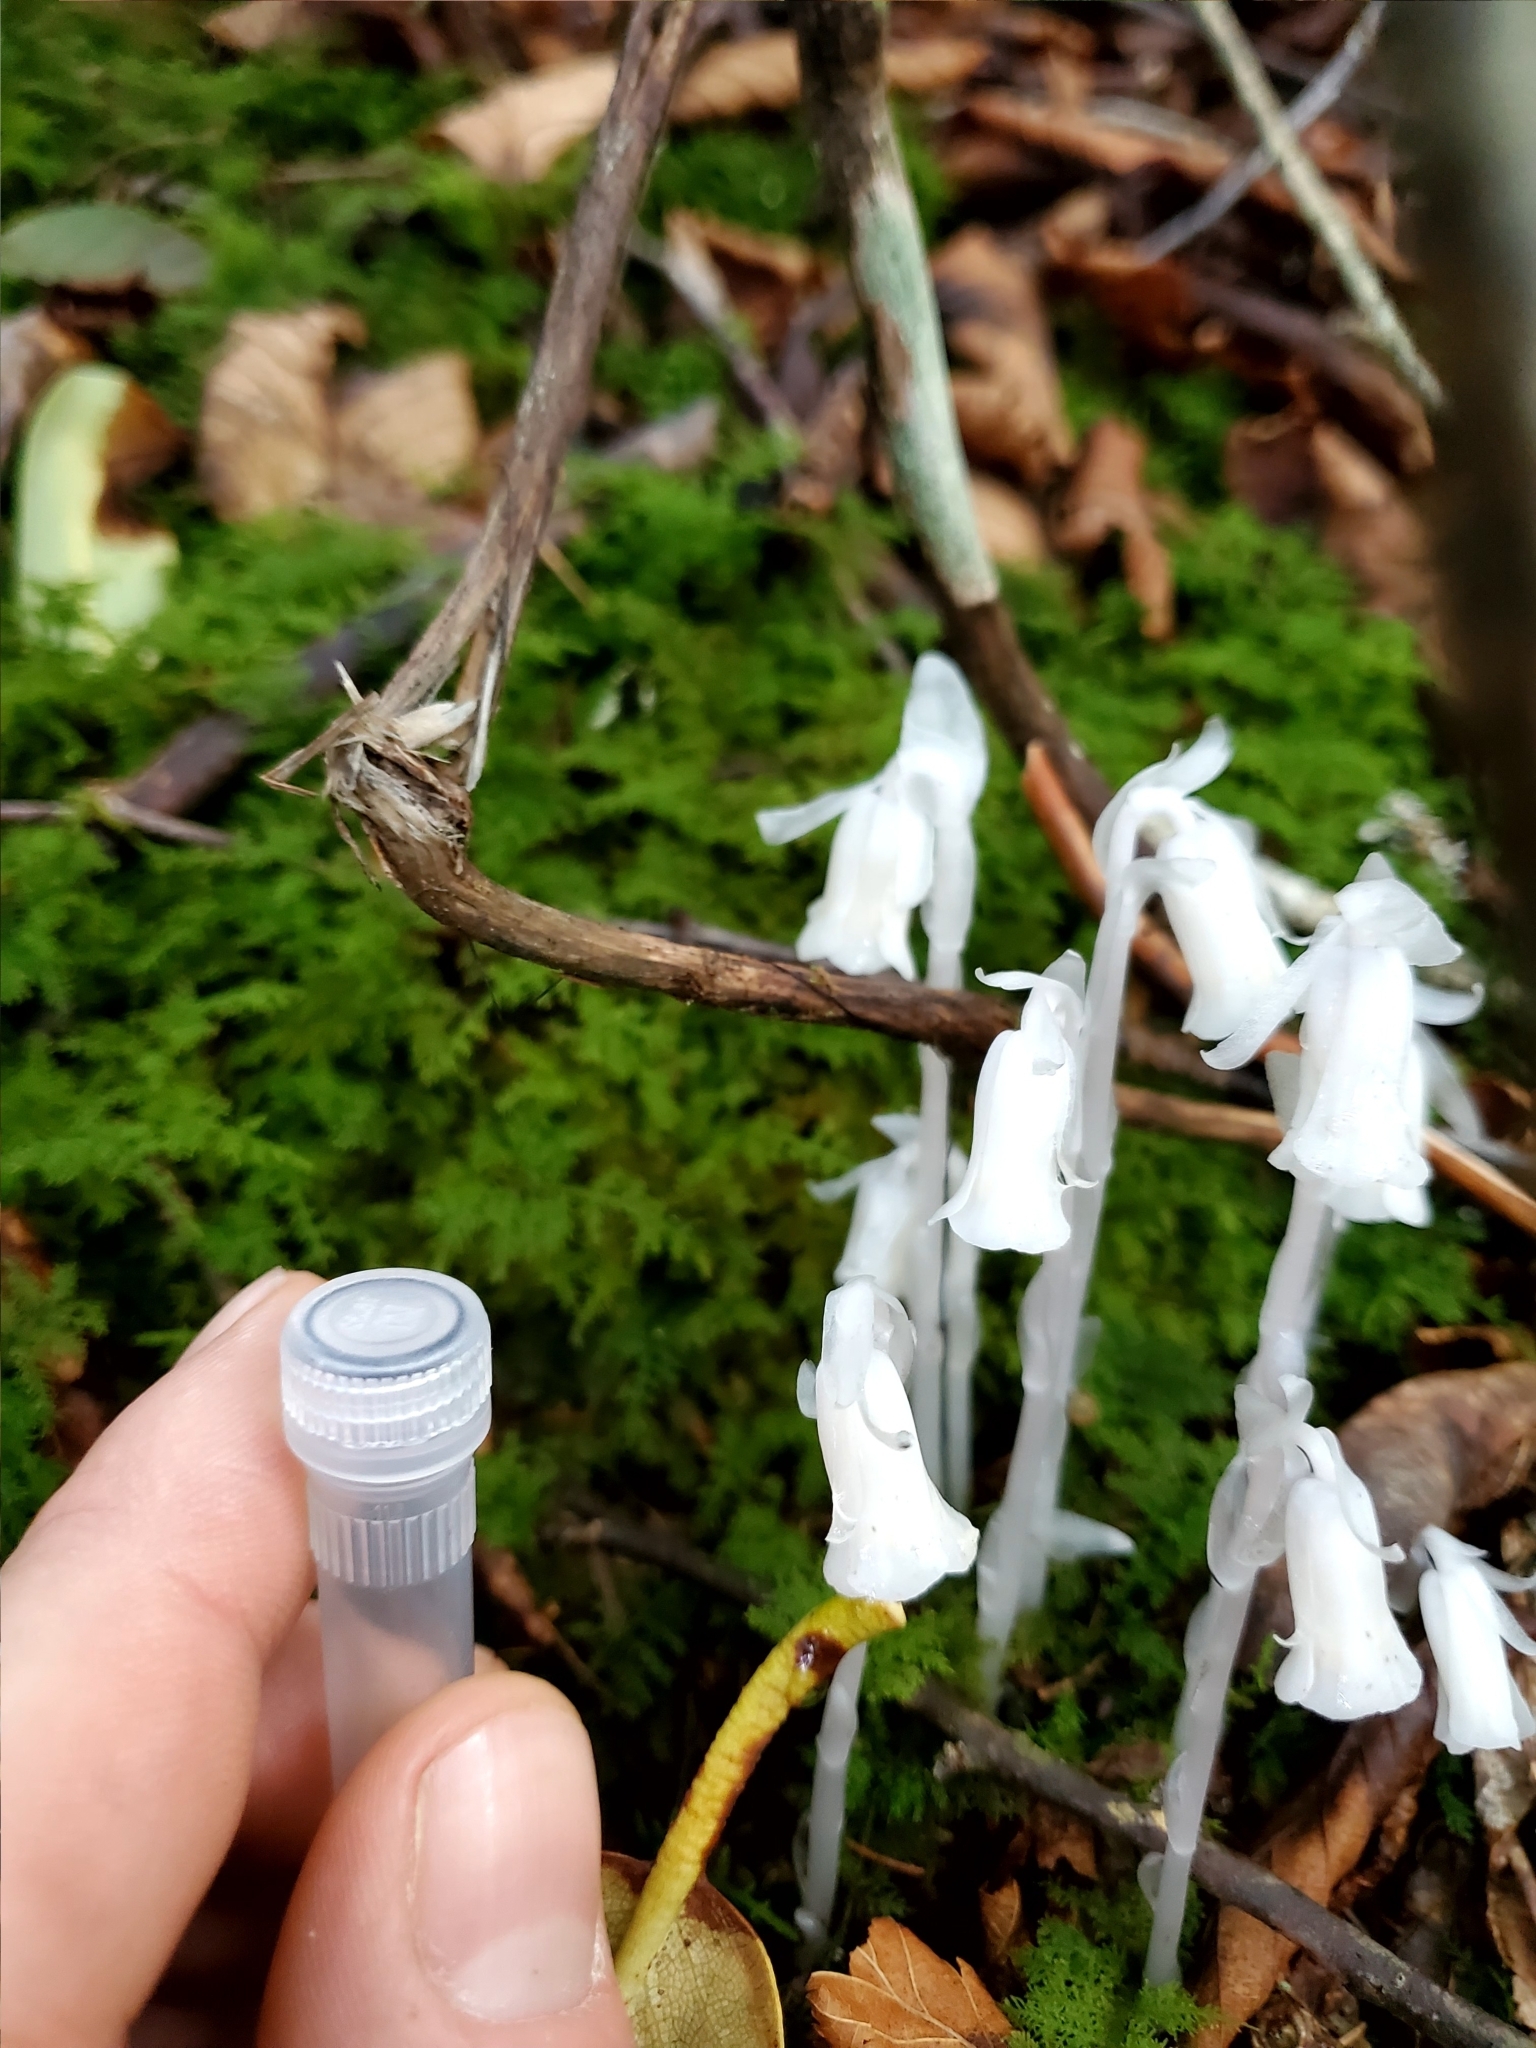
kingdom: Plantae
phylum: Tracheophyta
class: Magnoliopsida
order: Ericales
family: Ericaceae
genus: Monotropa
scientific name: Monotropa uniflora
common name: Convulsion root
